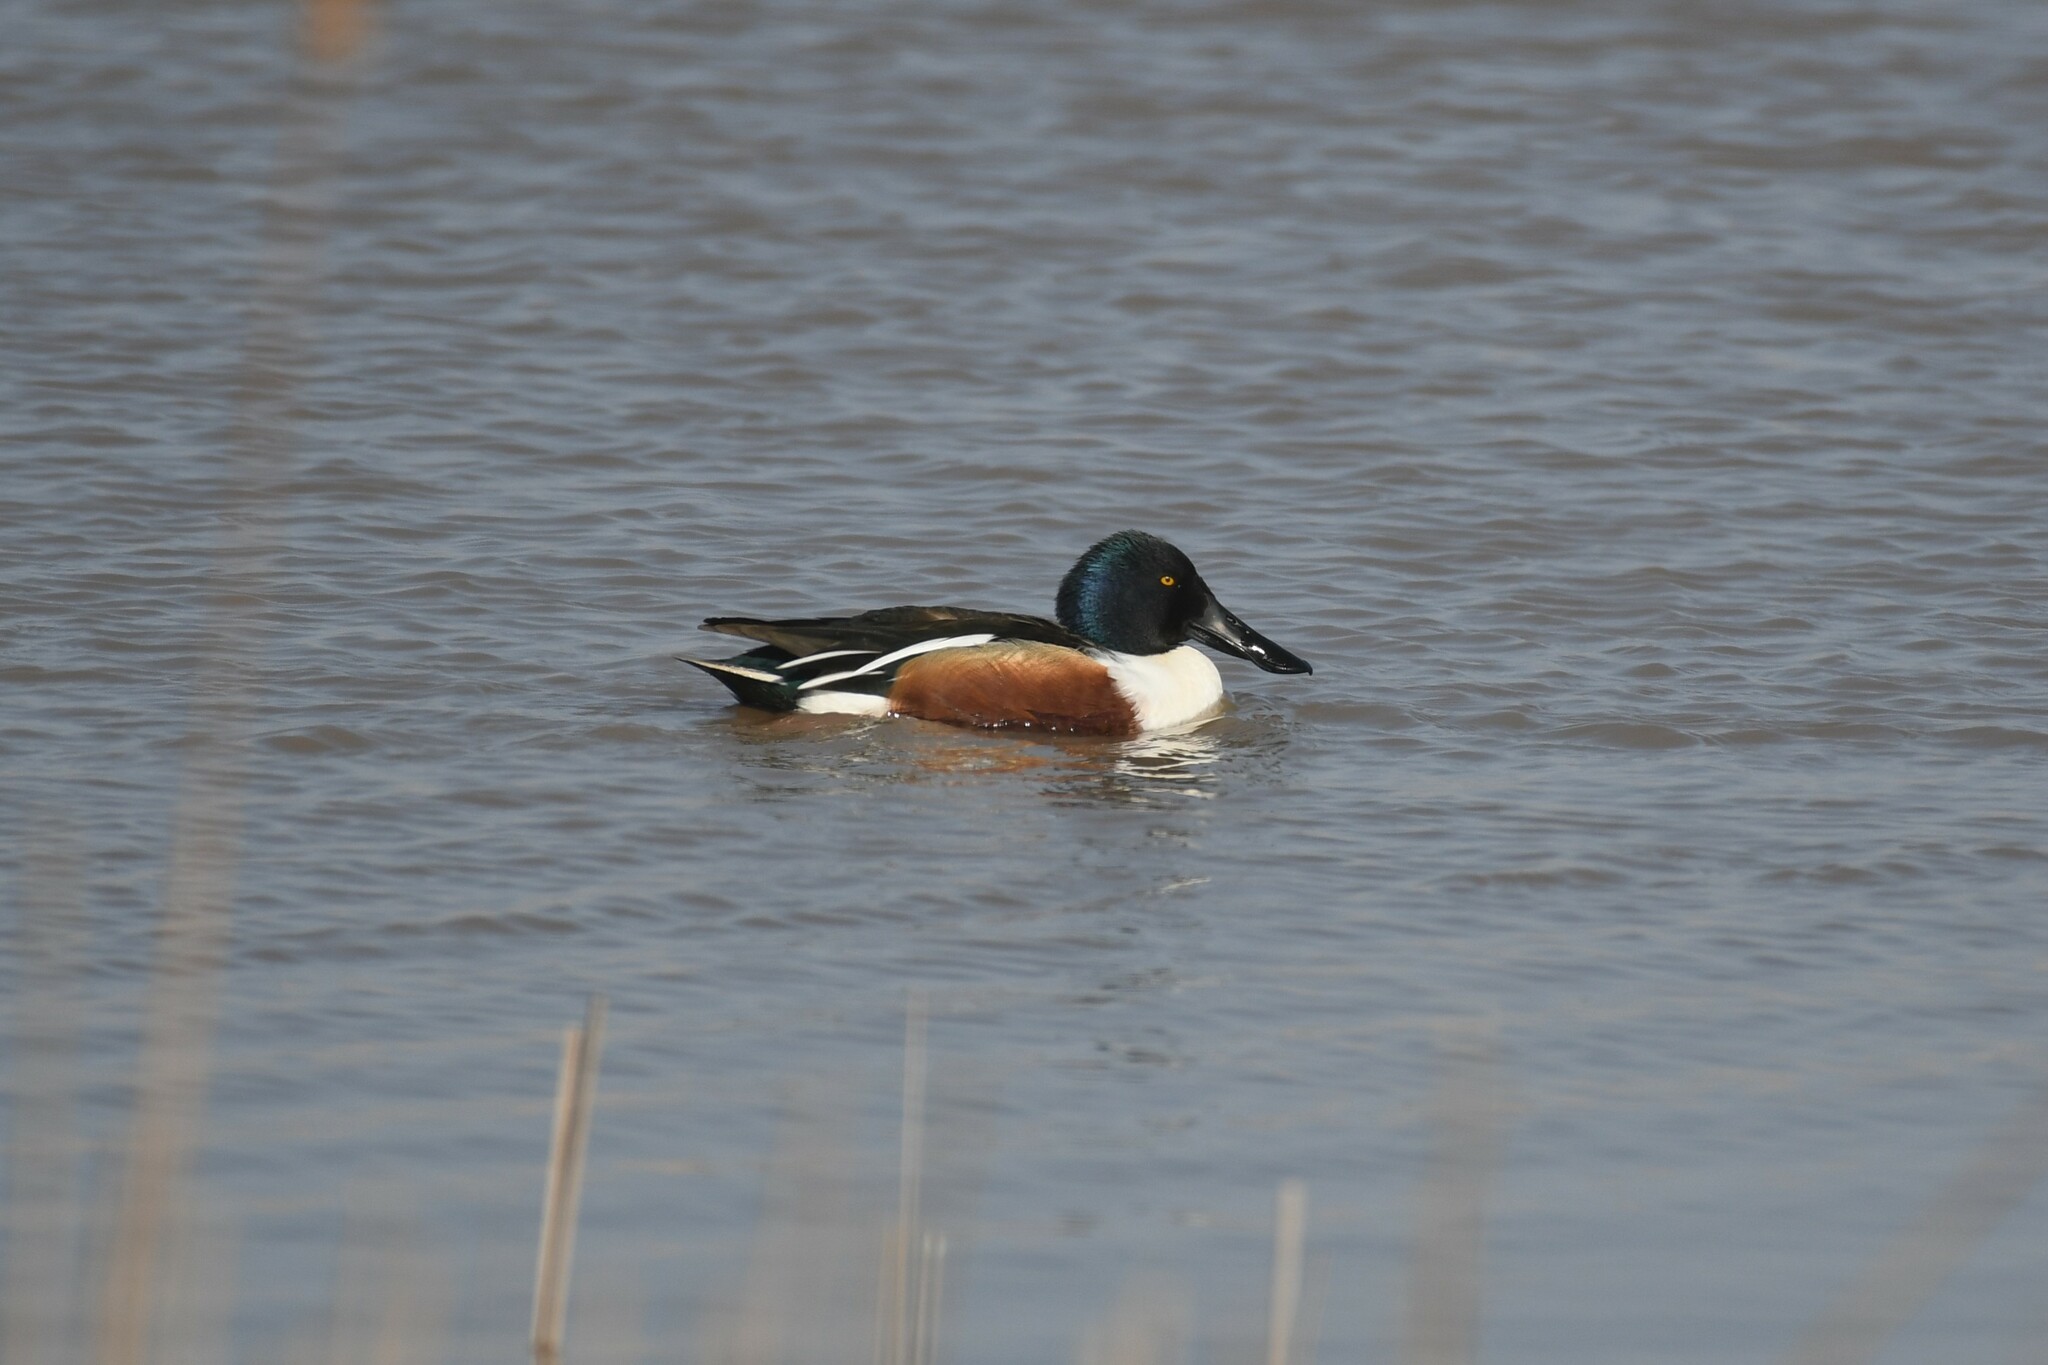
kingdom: Animalia
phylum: Chordata
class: Aves
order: Anseriformes
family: Anatidae
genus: Spatula
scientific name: Spatula clypeata
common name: Northern shoveler
